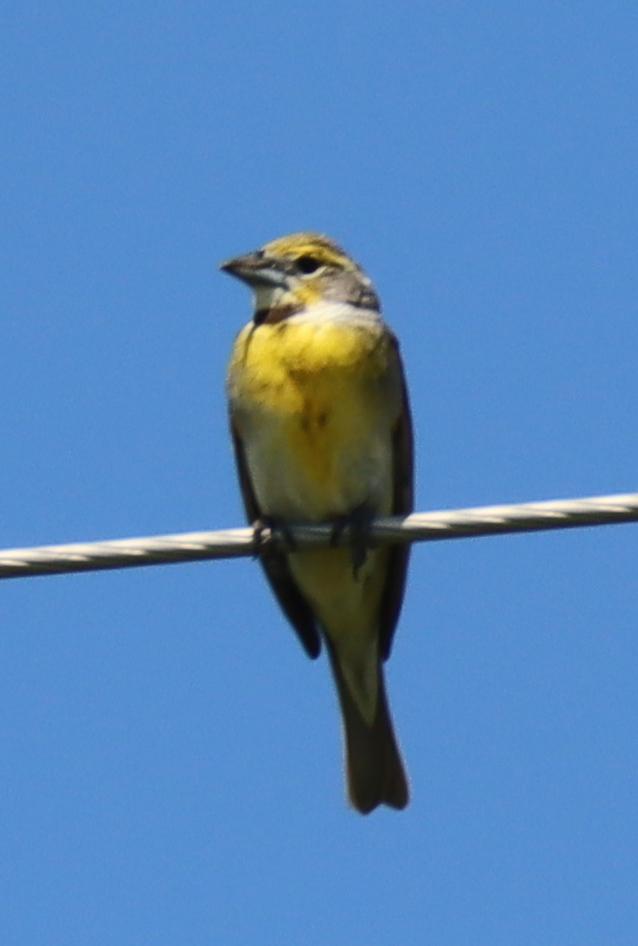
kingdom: Animalia
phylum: Chordata
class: Aves
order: Passeriformes
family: Cardinalidae
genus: Spiza
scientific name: Spiza americana
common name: Dickcissel
